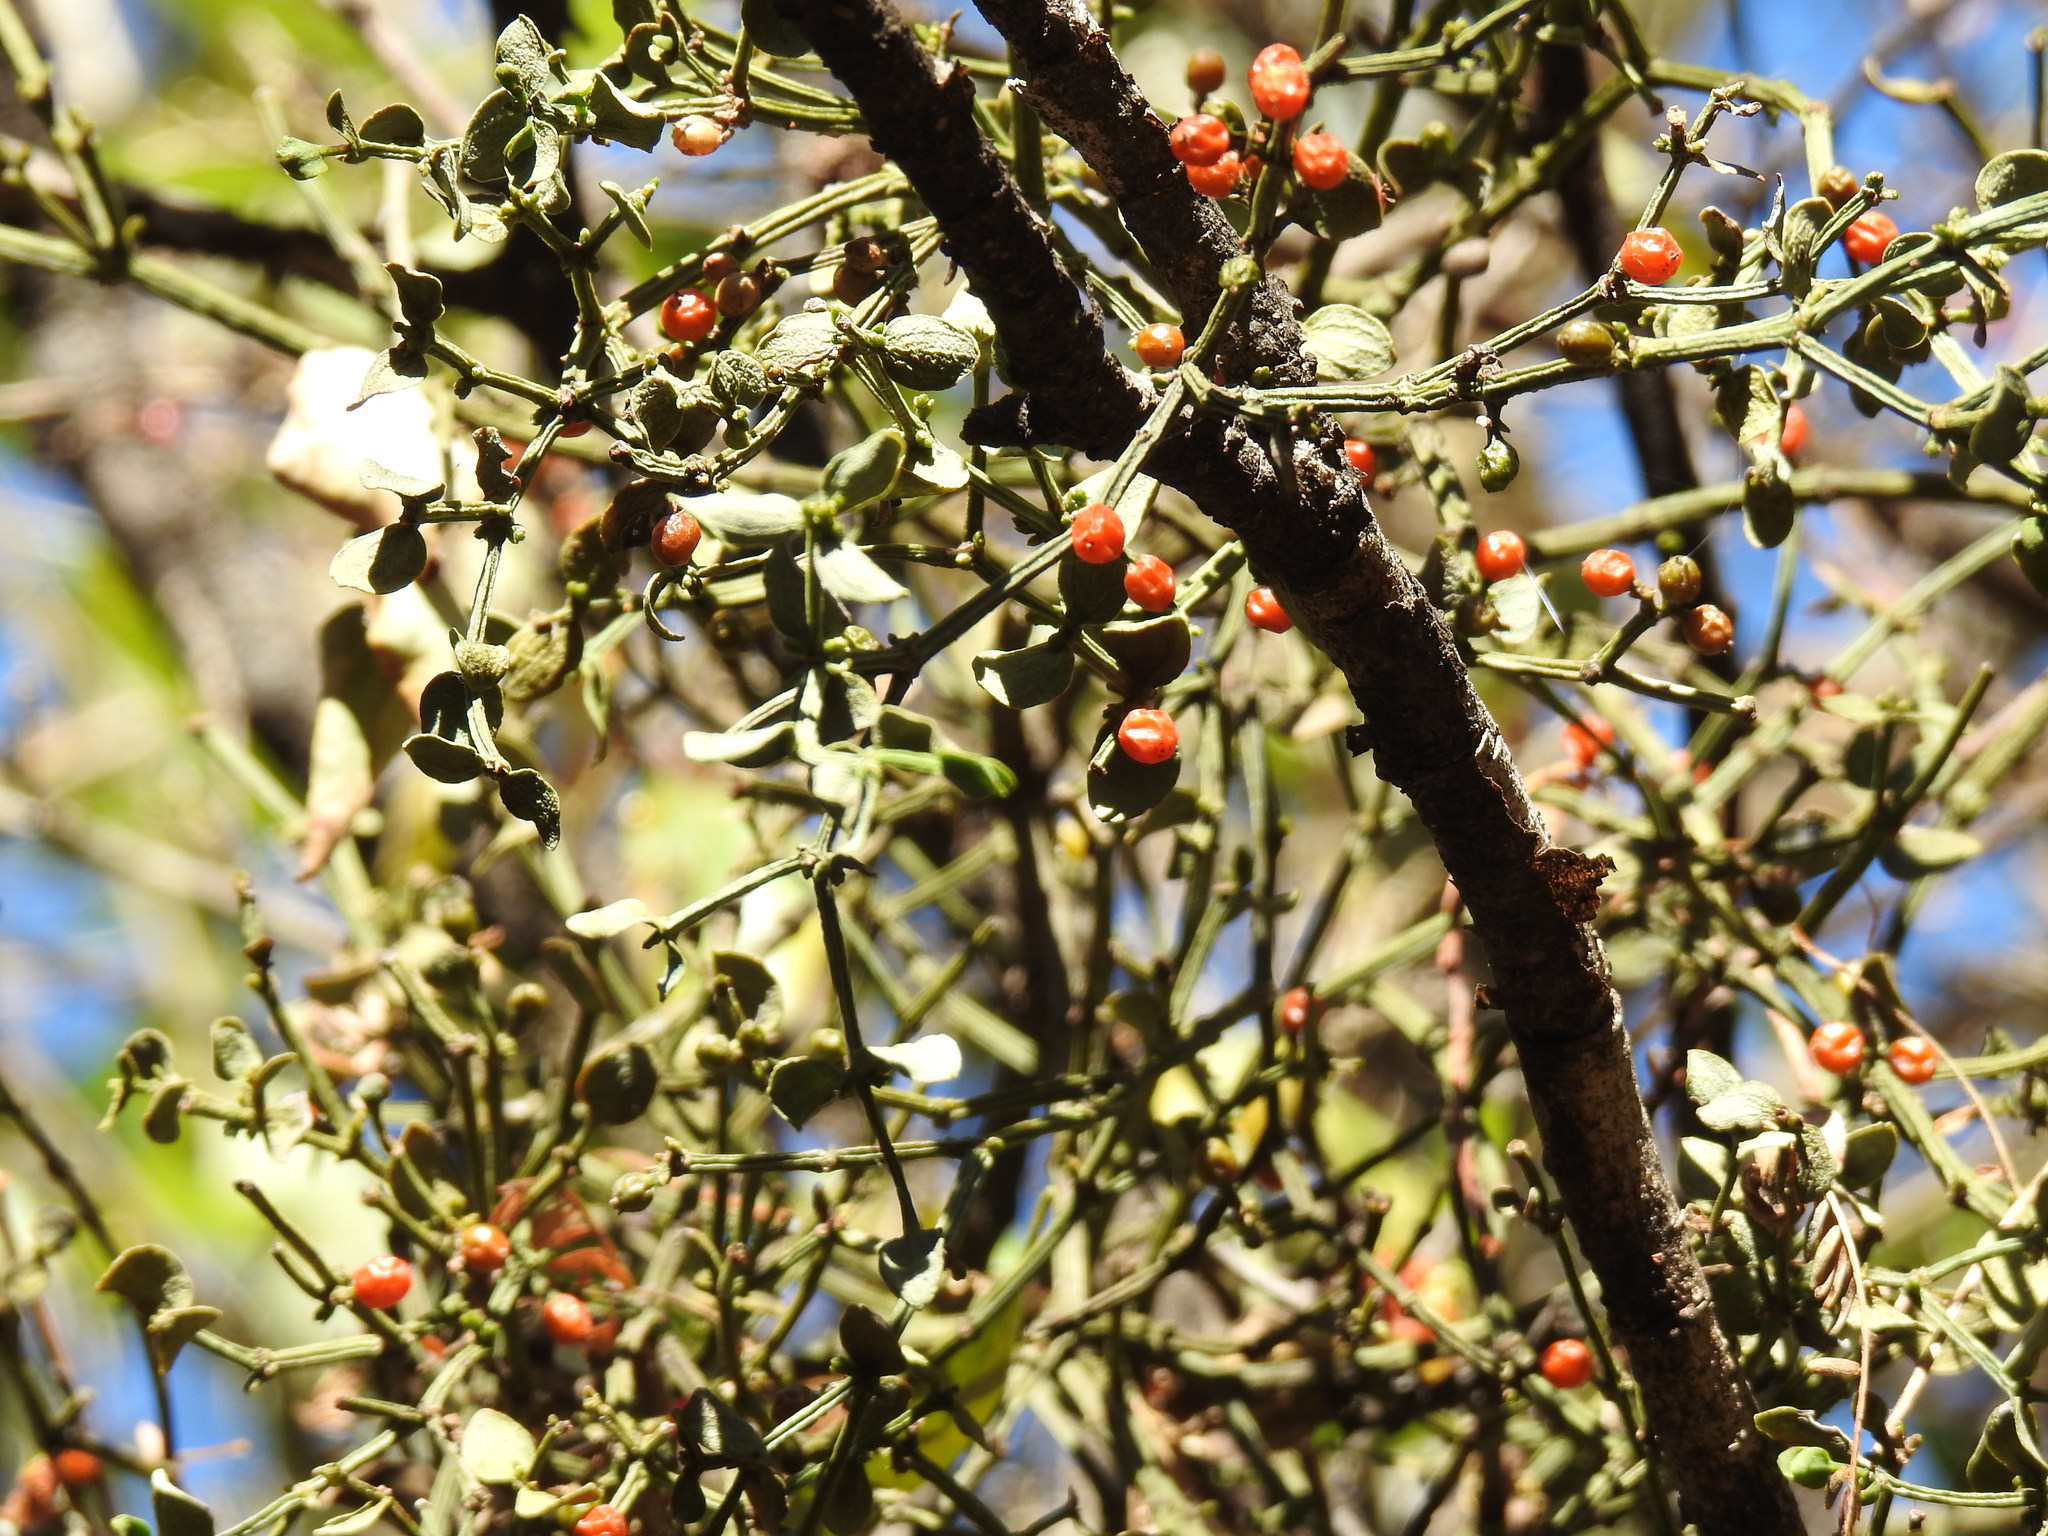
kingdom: Plantae
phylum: Tracheophyta
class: Magnoliopsida
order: Santalales
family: Viscaceae
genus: Viscum
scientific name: Viscum rotundifolium
